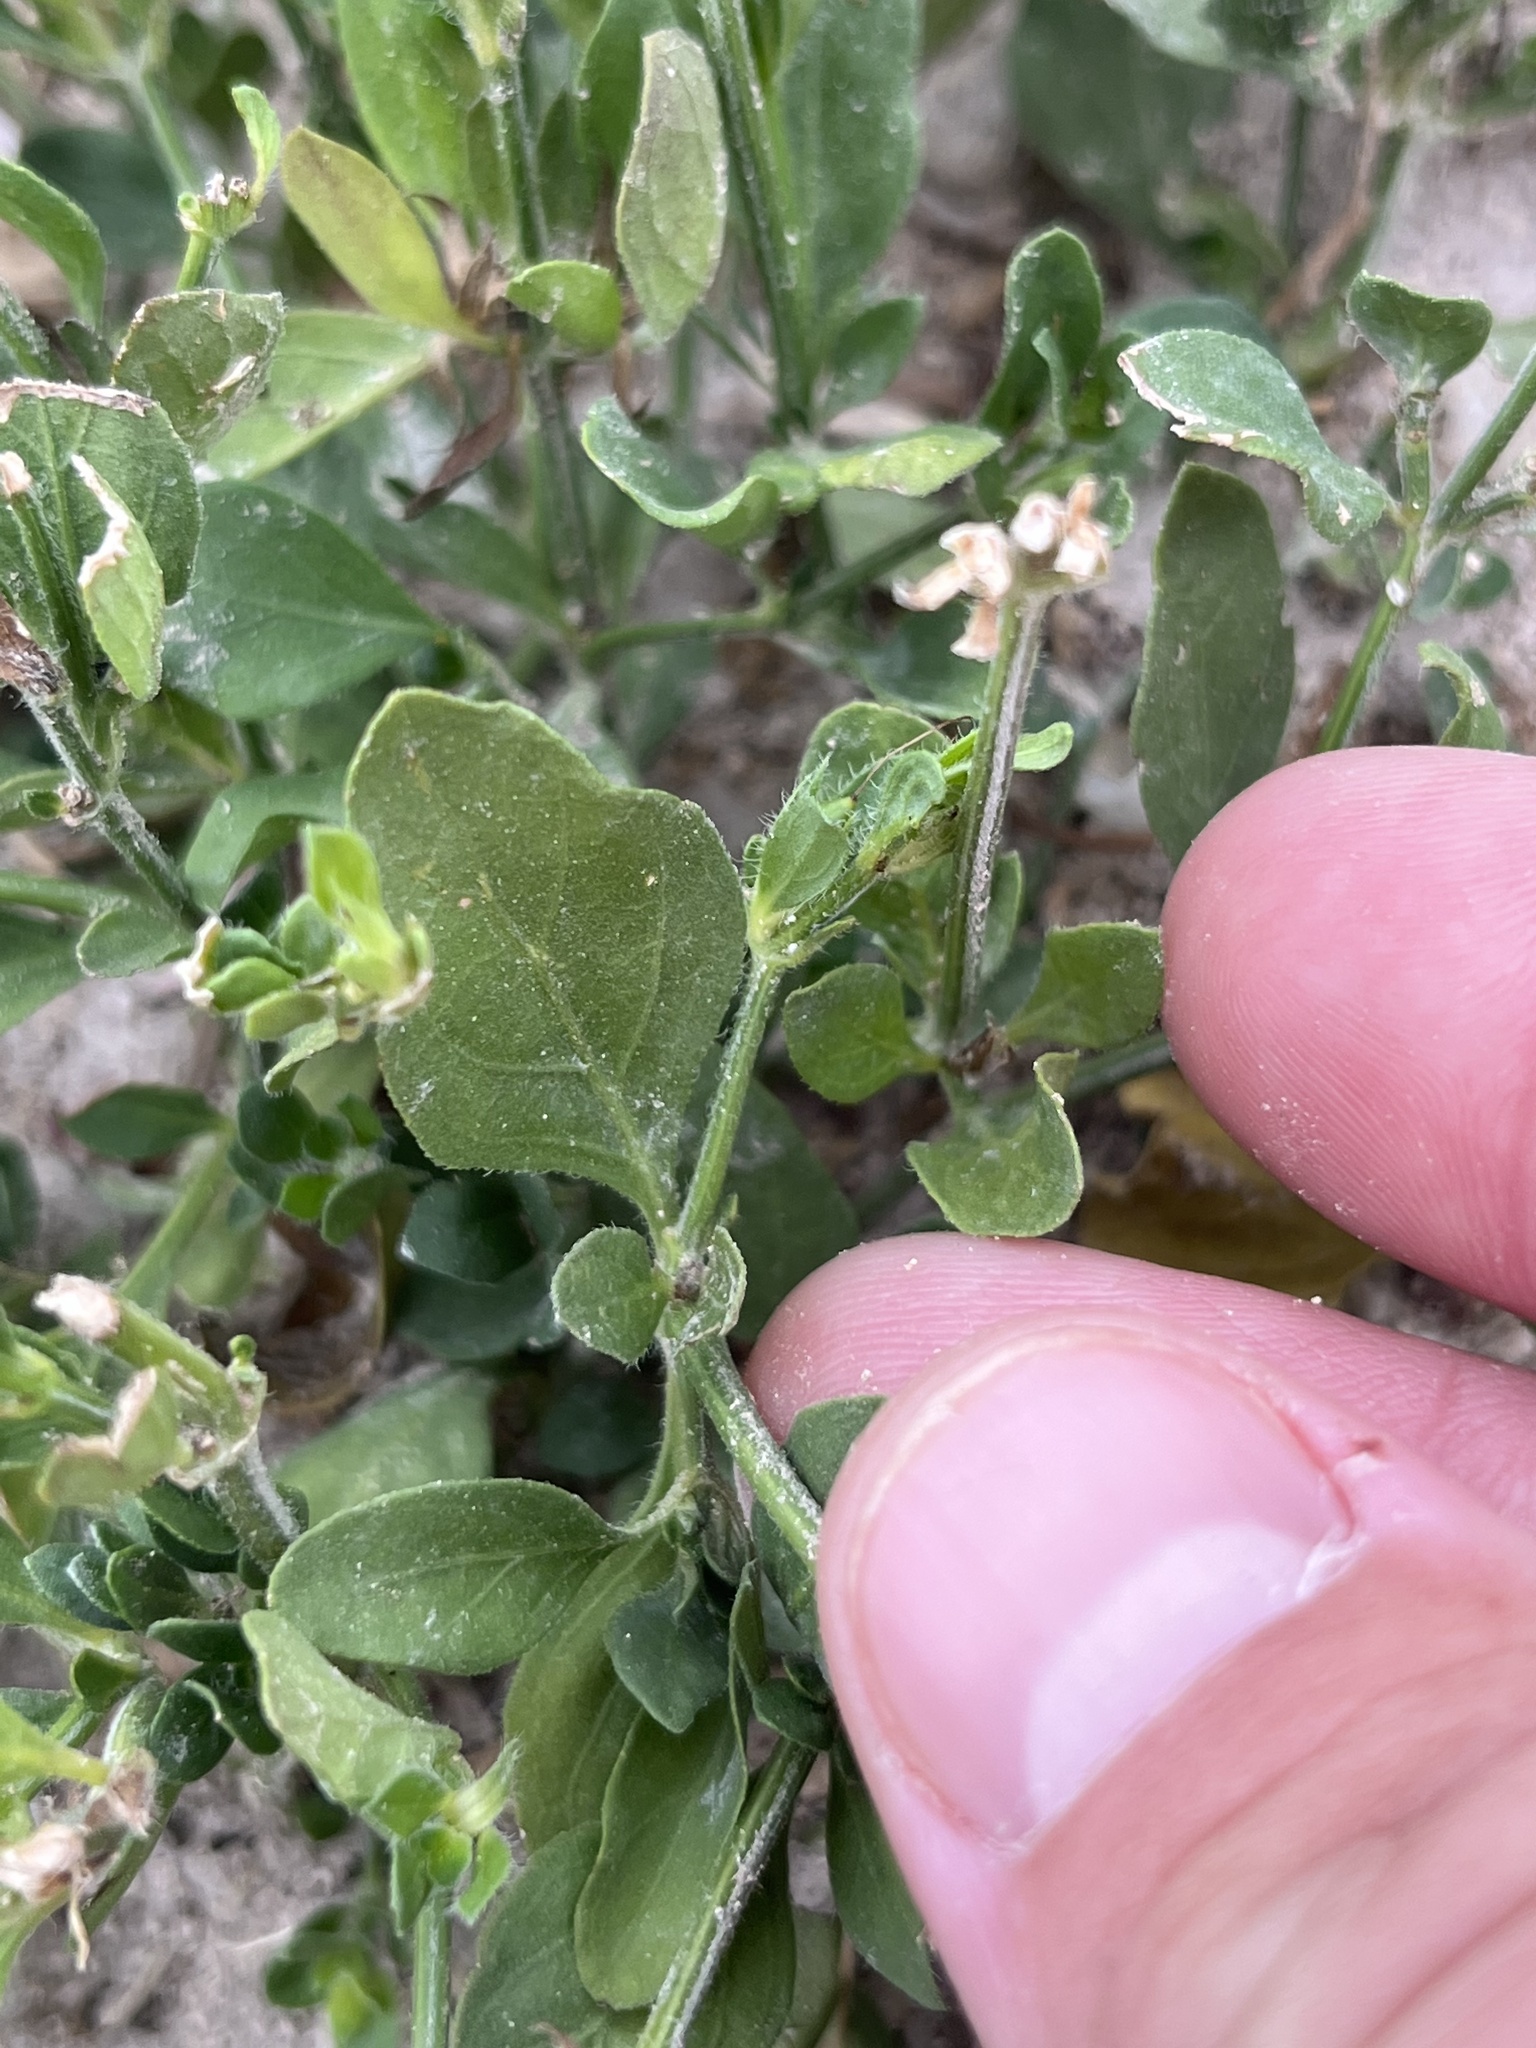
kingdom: Plantae
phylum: Tracheophyta
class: Magnoliopsida
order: Lamiales
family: Acanthaceae
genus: Justicia
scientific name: Justicia pilosella
